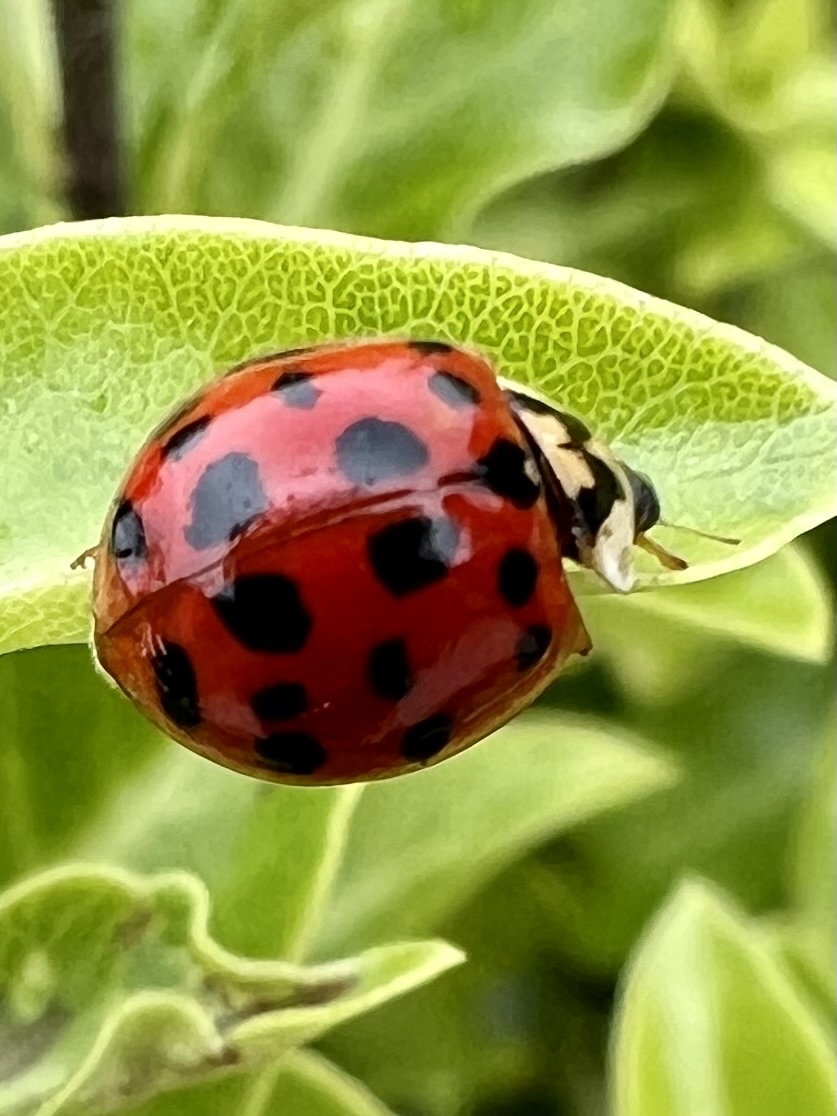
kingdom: Animalia
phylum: Arthropoda
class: Insecta
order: Coleoptera
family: Coccinellidae
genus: Harmonia
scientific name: Harmonia axyridis
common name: Harlequin ladybird
